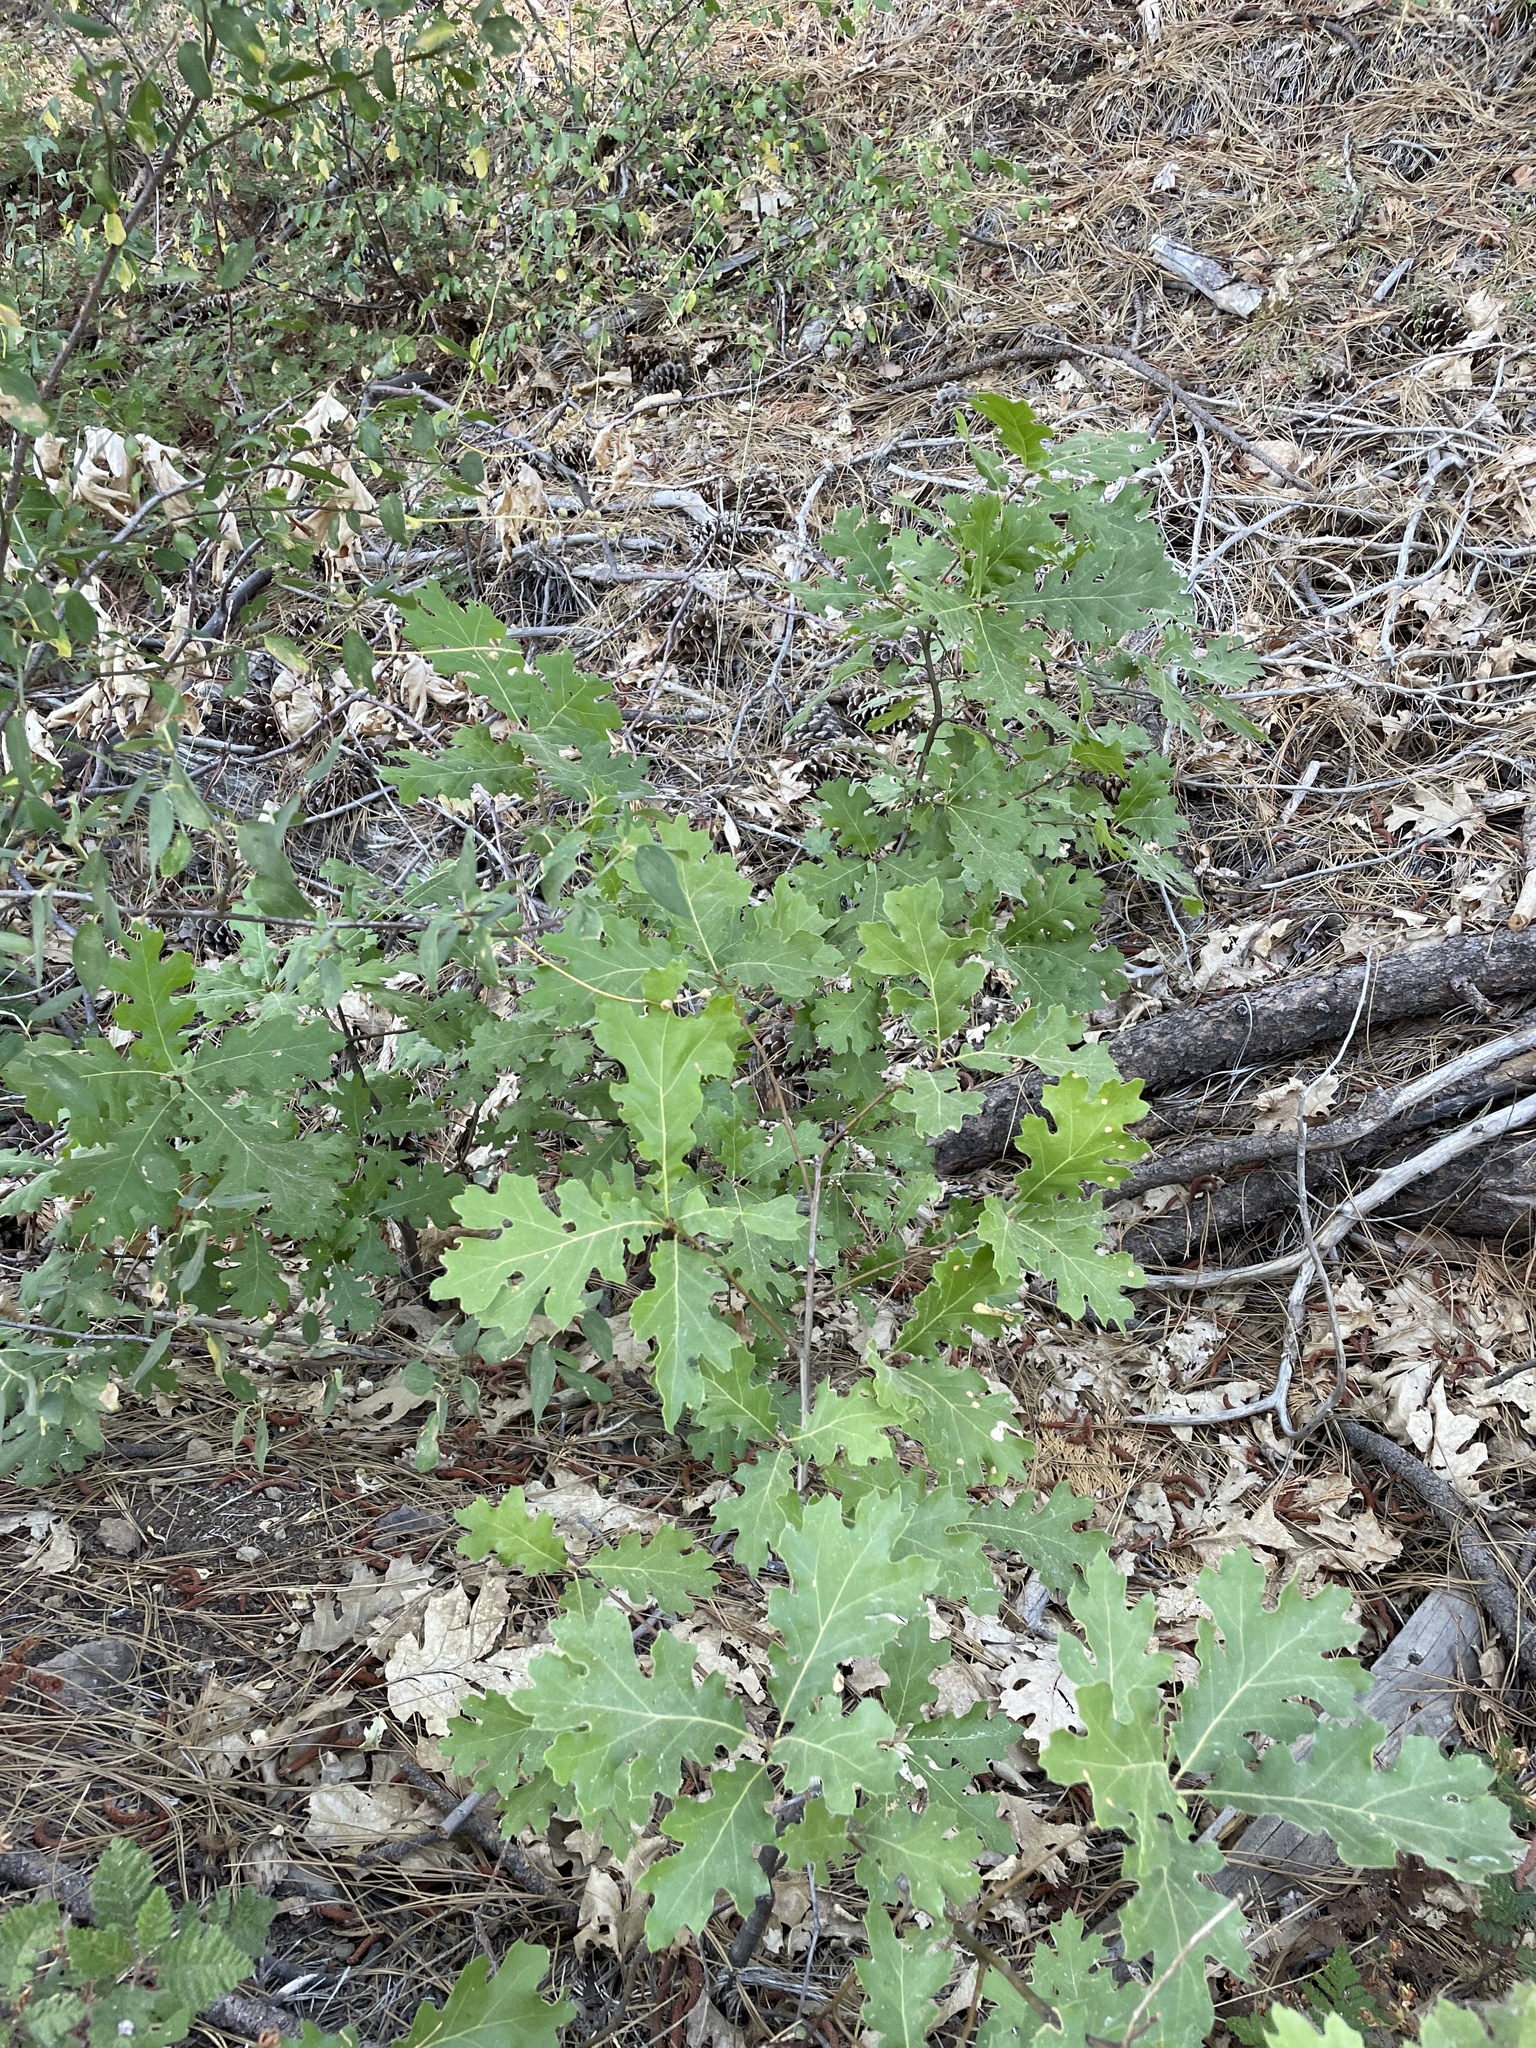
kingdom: Plantae
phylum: Tracheophyta
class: Magnoliopsida
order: Fagales
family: Fagaceae
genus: Quercus
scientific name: Quercus kelloggii
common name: California black oak
